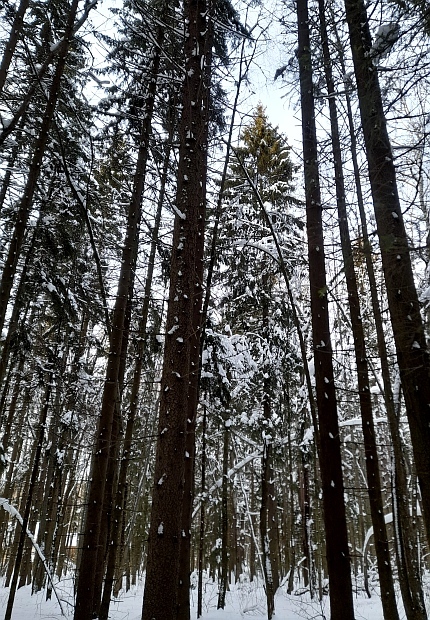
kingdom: Plantae
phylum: Tracheophyta
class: Pinopsida
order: Pinales
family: Pinaceae
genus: Picea
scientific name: Picea abies
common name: Norway spruce
